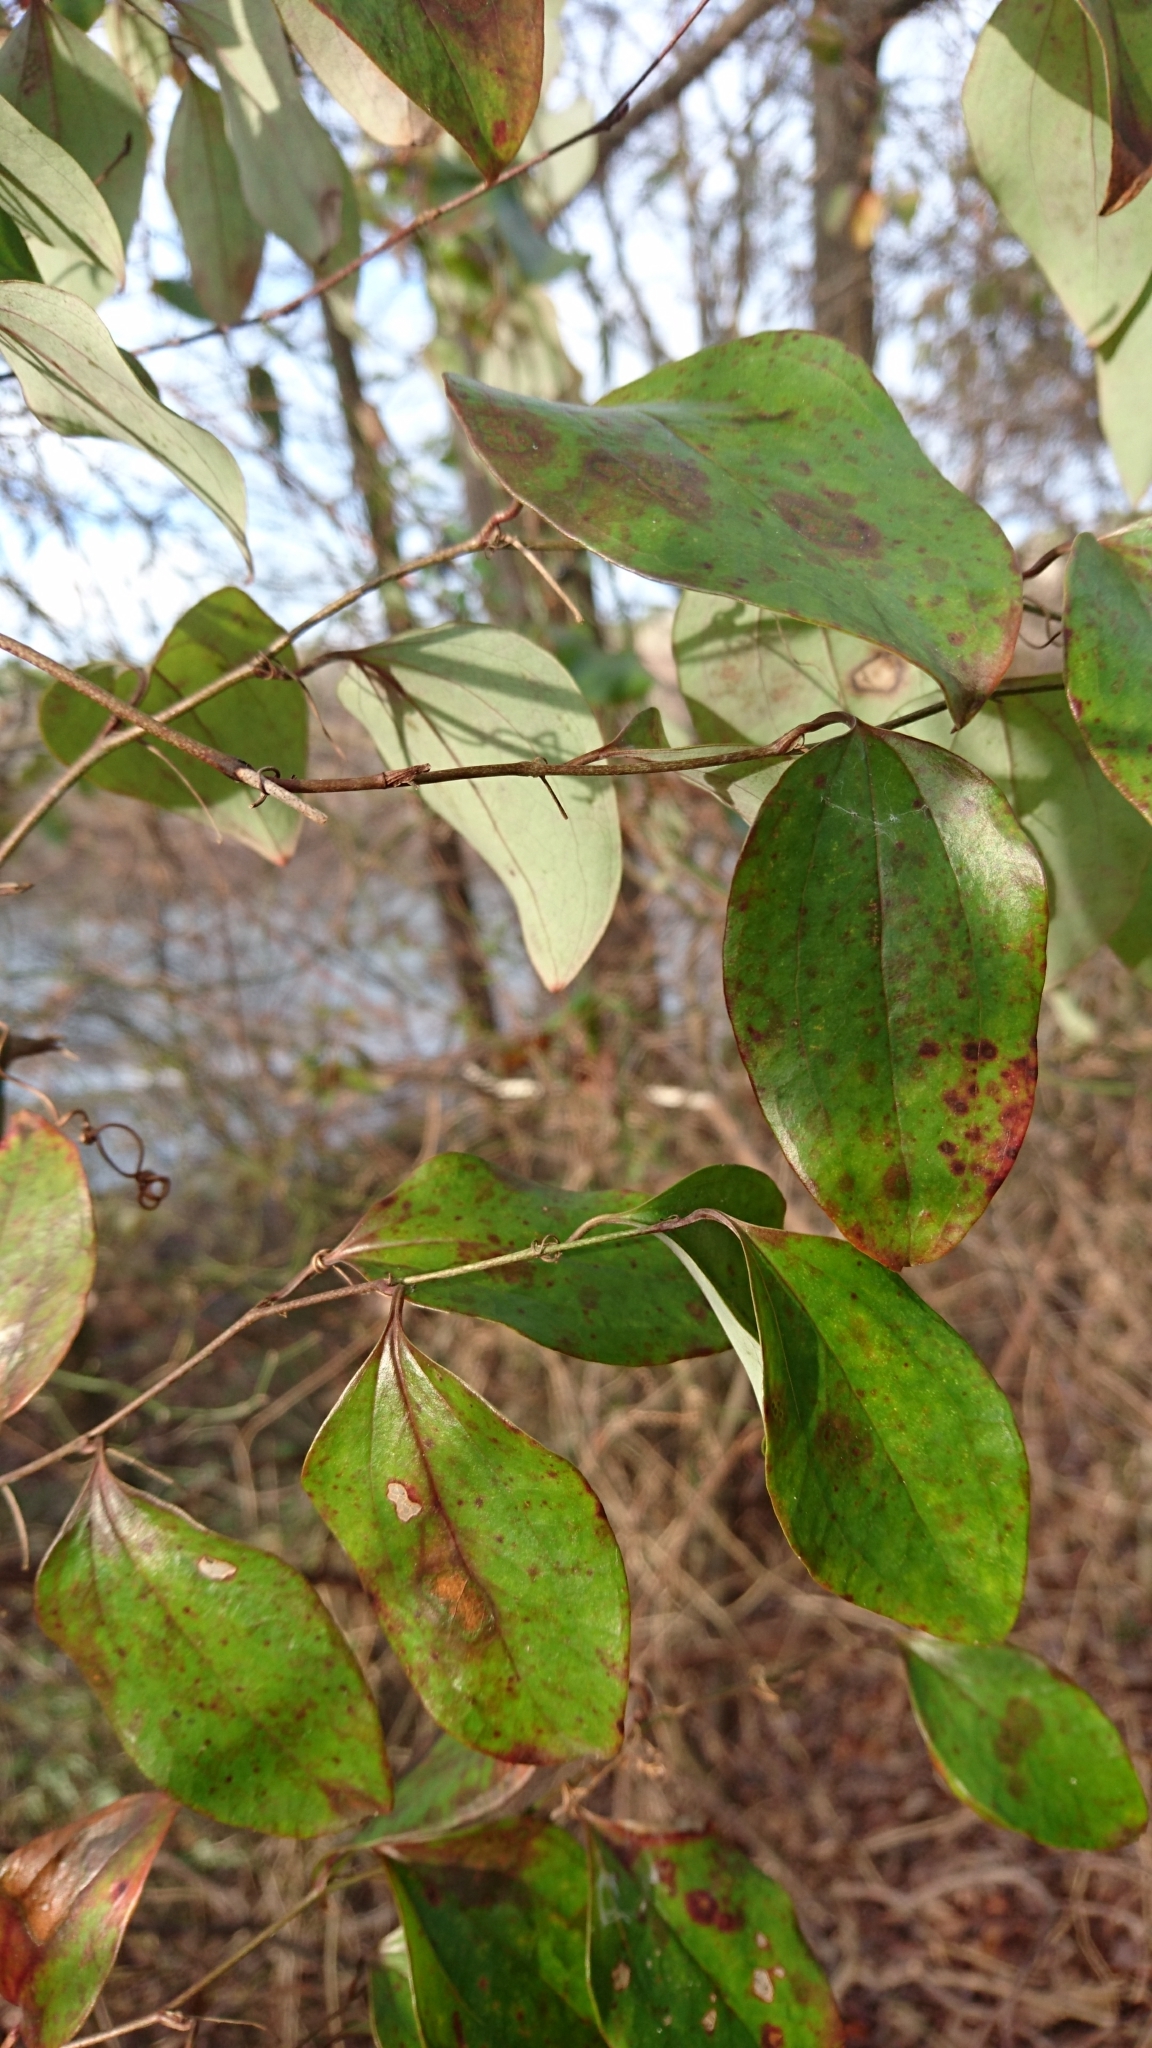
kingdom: Plantae
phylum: Tracheophyta
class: Liliopsida
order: Liliales
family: Smilacaceae
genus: Smilax
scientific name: Smilax glauca
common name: Cat greenbrier
